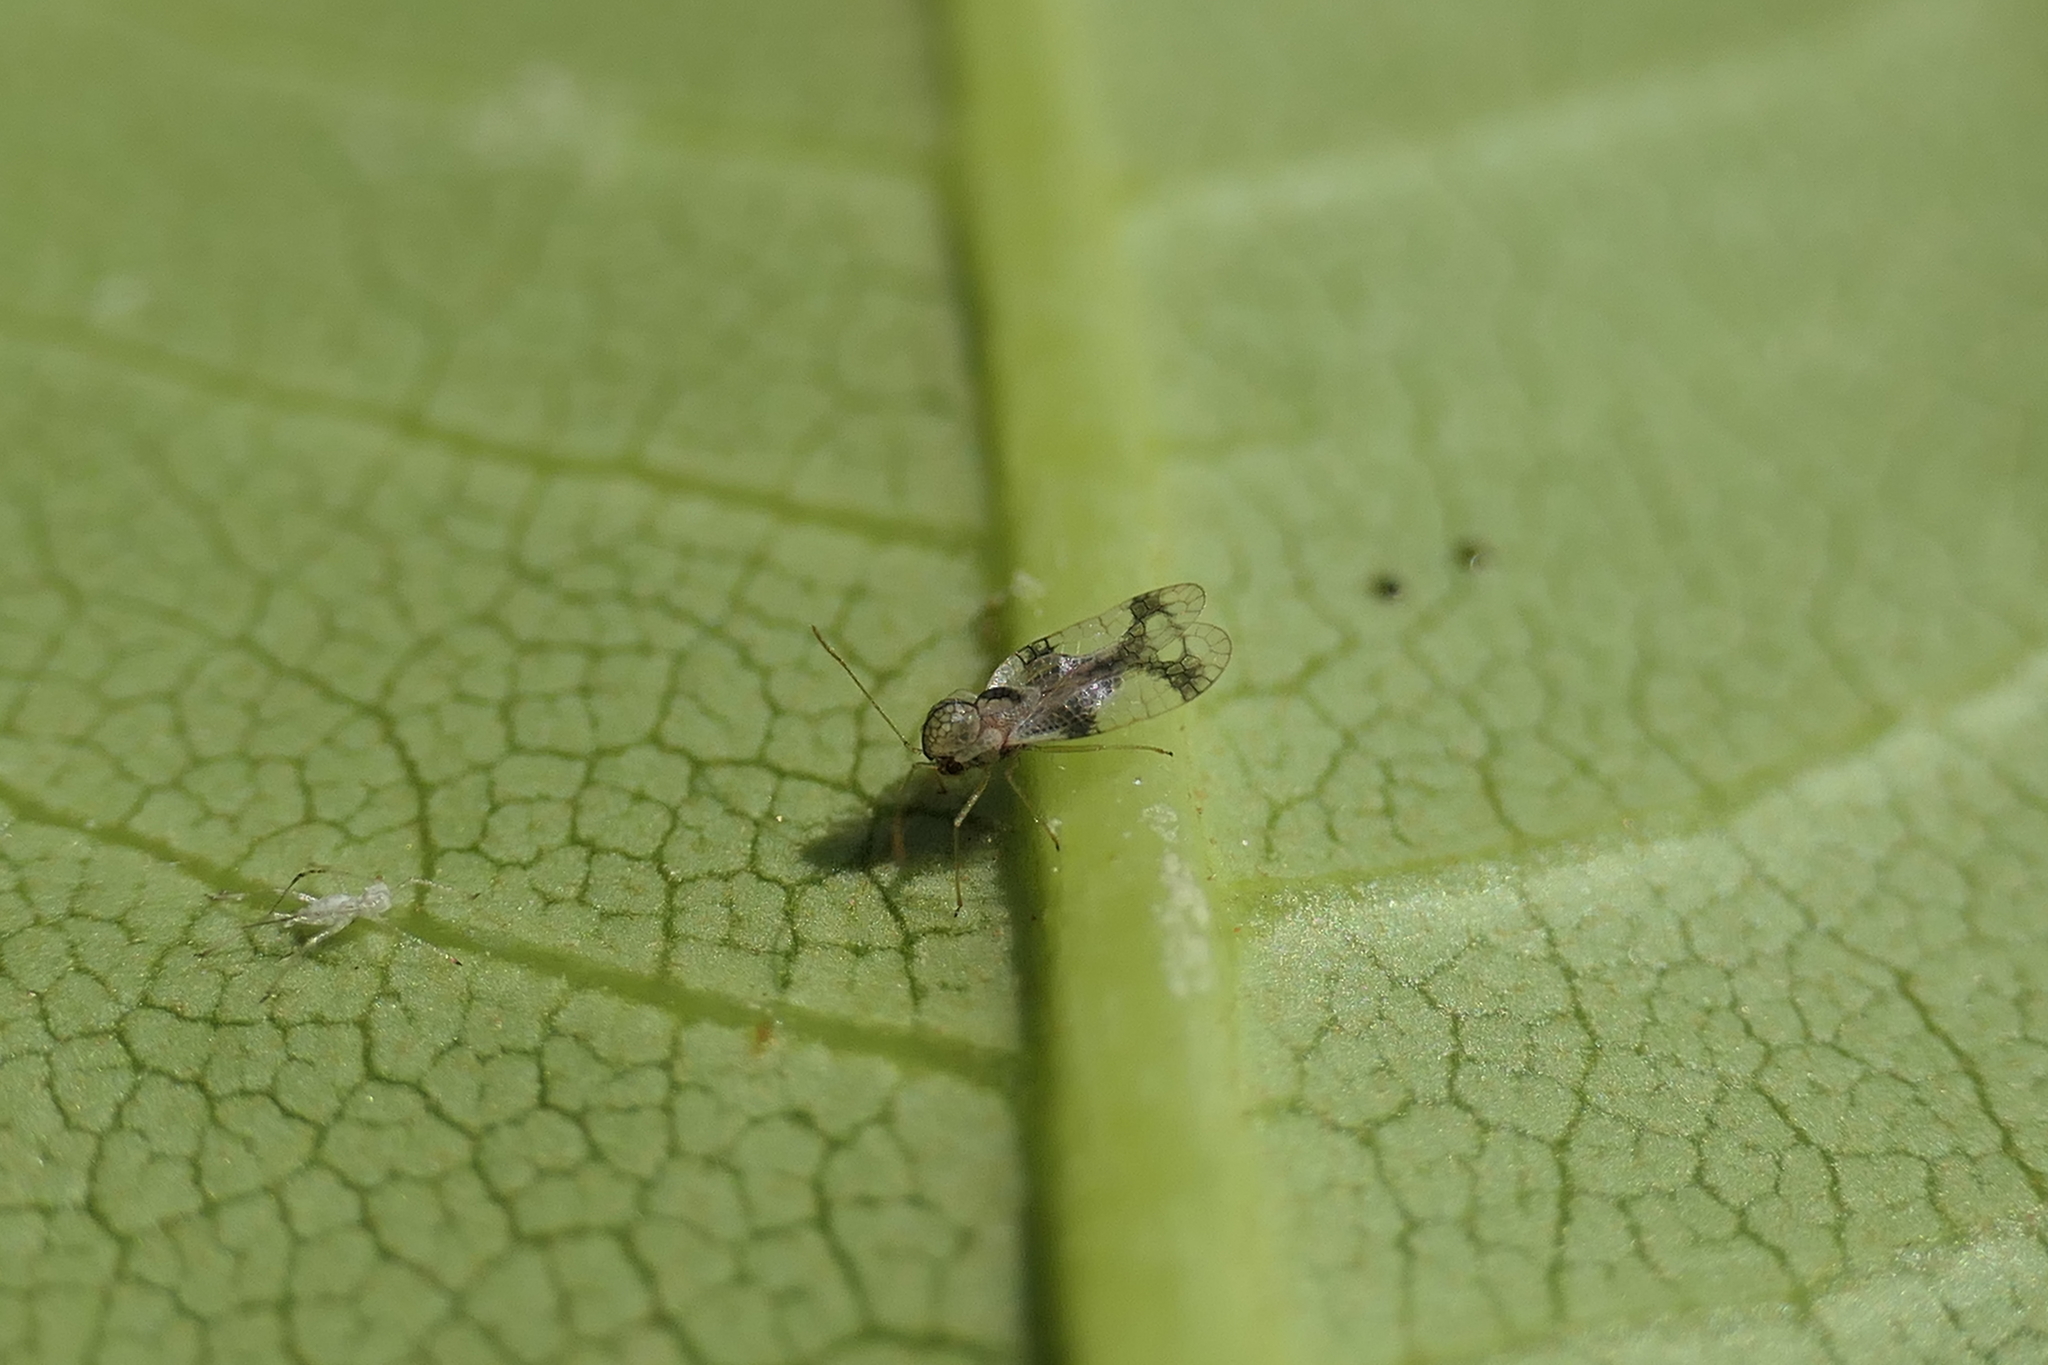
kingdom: Animalia
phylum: Arthropoda
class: Insecta
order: Hemiptera
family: Tingidae
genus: Stephanitis
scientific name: Stephanitis pyrioides
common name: Azalea lace bug
